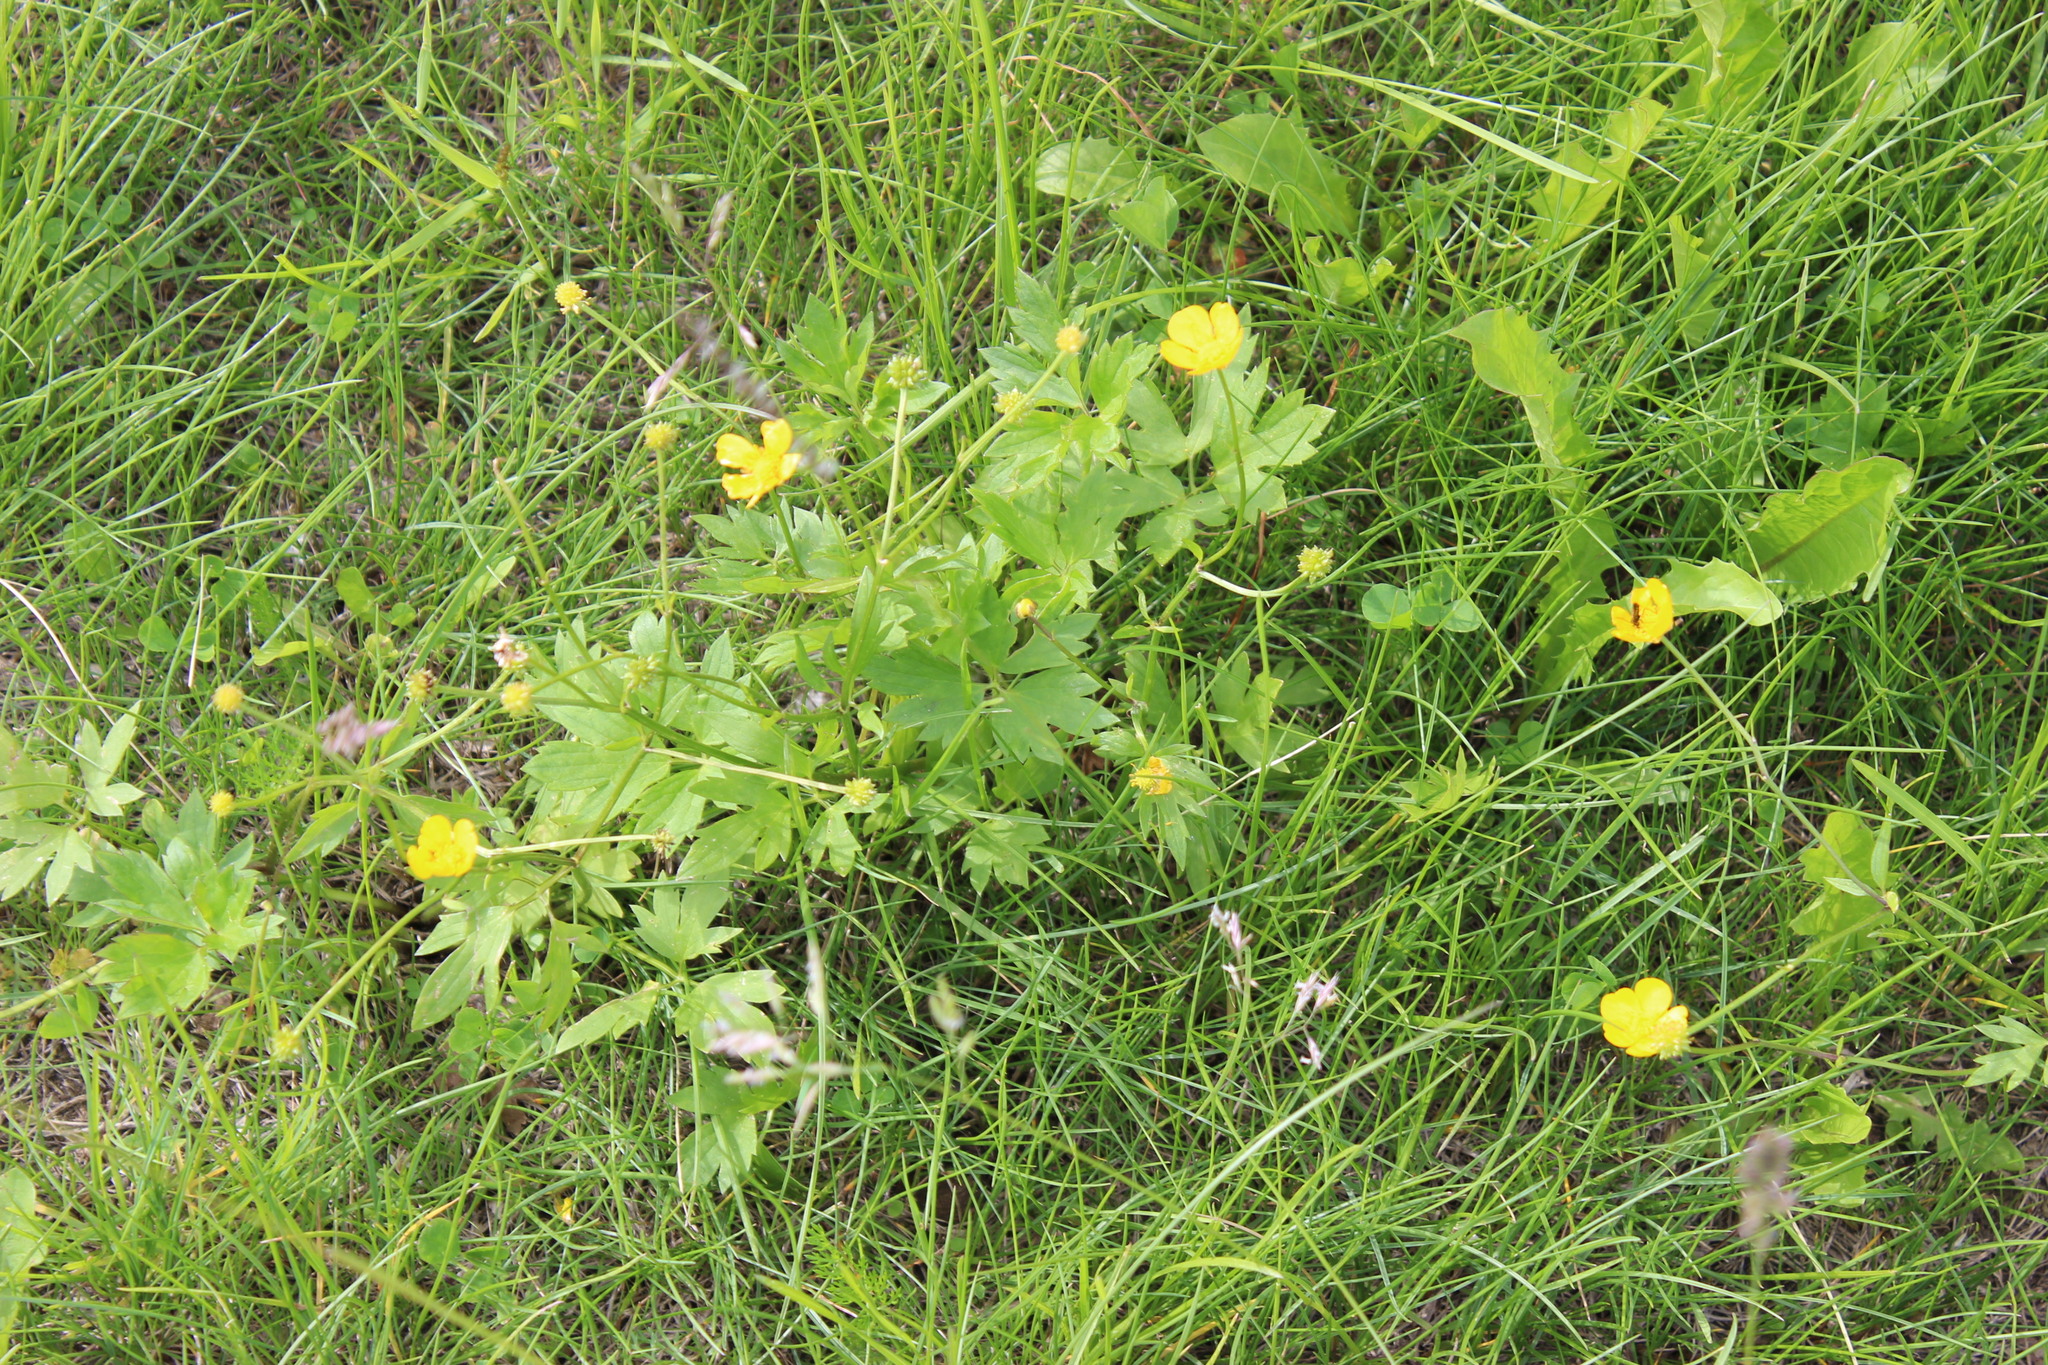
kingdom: Plantae
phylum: Tracheophyta
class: Magnoliopsida
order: Ranunculales
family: Ranunculaceae
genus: Ranunculus
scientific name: Ranunculus repens
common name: Creeping buttercup
